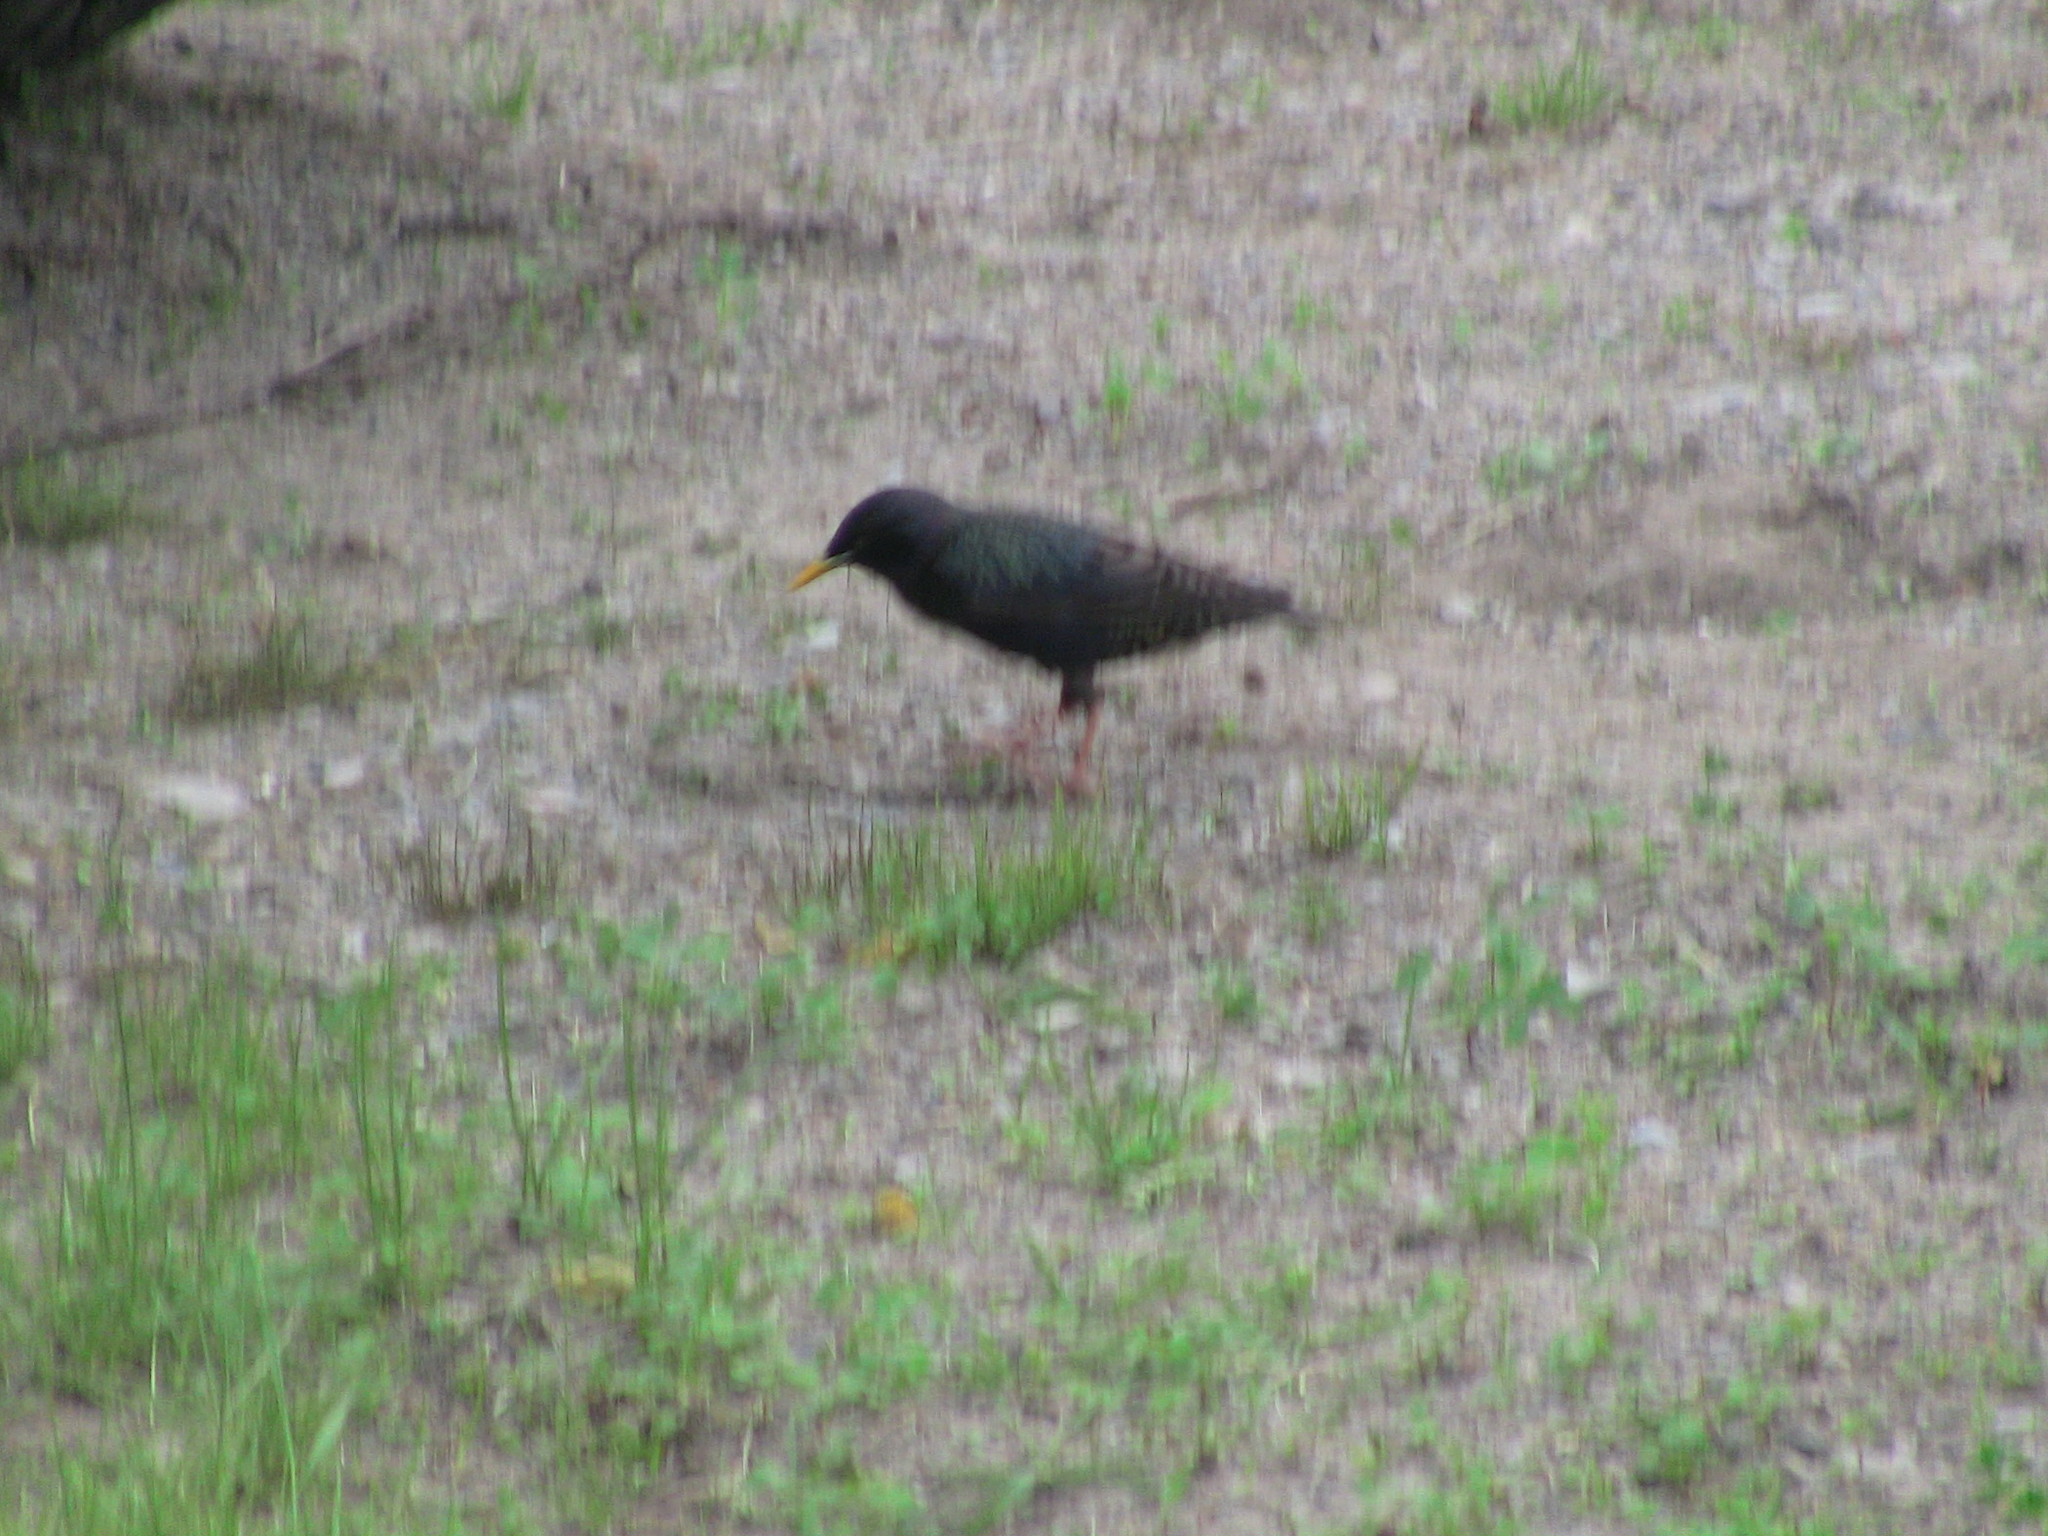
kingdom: Animalia
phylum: Chordata
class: Aves
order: Passeriformes
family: Sturnidae
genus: Sturnus
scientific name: Sturnus vulgaris
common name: Common starling
